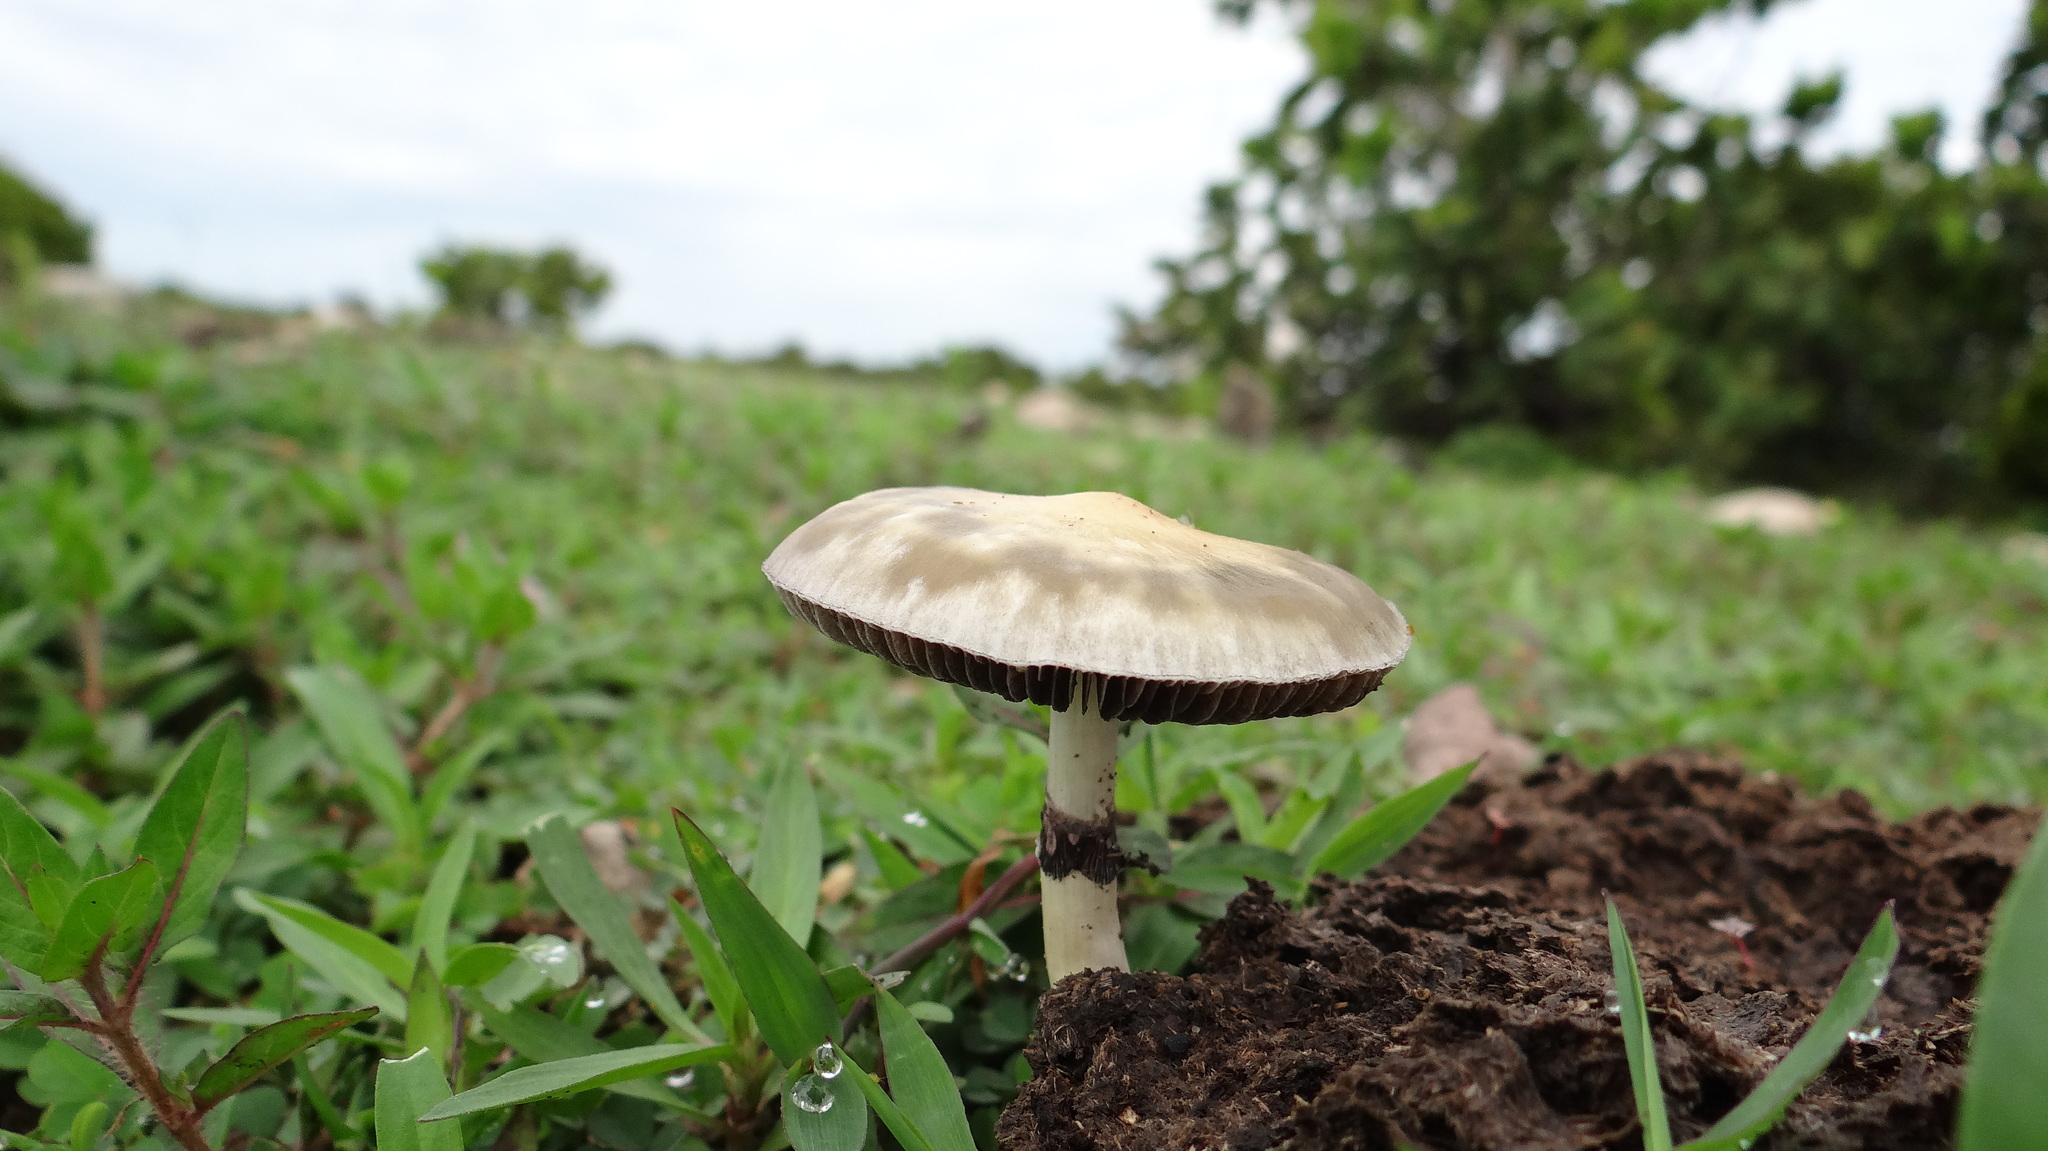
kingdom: Fungi
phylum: Basidiomycota
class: Agaricomycetes
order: Agaricales
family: Hymenogastraceae
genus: Psilocybe
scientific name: Psilocybe cubensis
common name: Golden brownie
